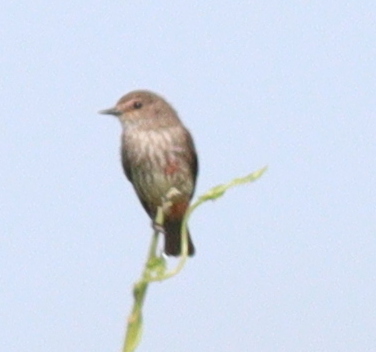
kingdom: Animalia
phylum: Chordata
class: Aves
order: Passeriformes
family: Tyrannidae
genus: Pyrocephalus
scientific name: Pyrocephalus rubinus
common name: Vermilion flycatcher
